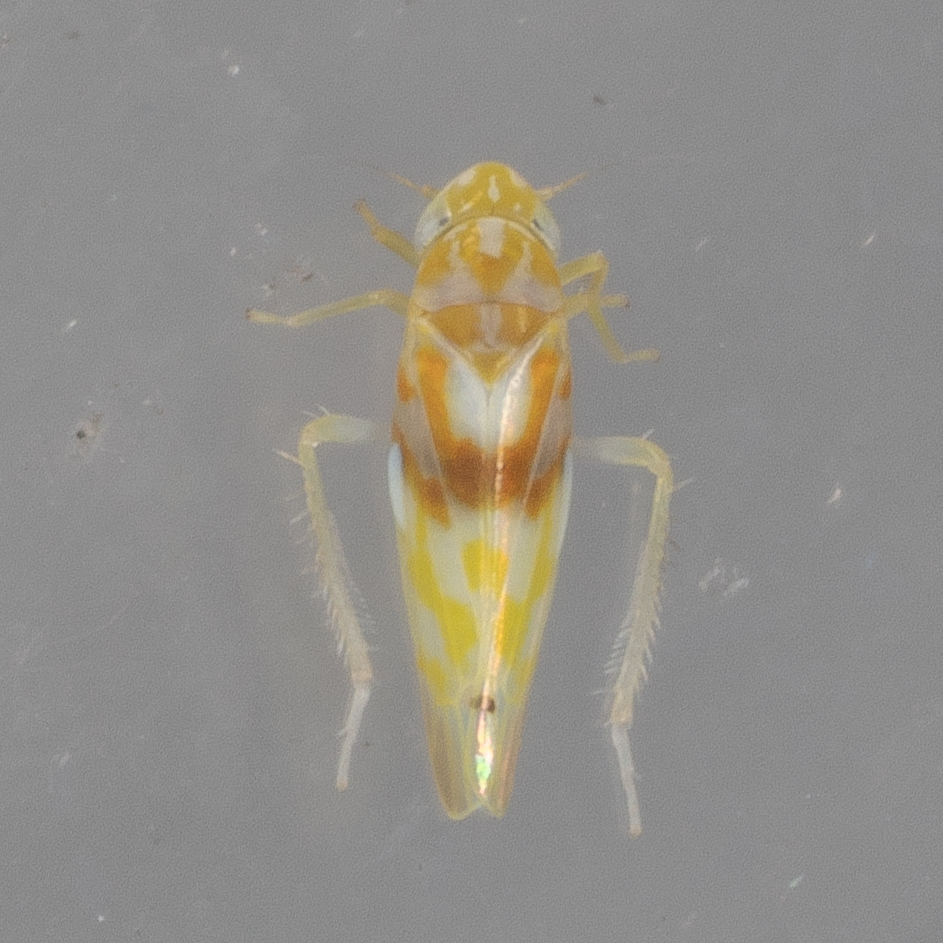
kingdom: Animalia
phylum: Arthropoda
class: Insecta
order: Hemiptera
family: Cicadellidae
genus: Eratoneura
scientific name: Eratoneura affinis
